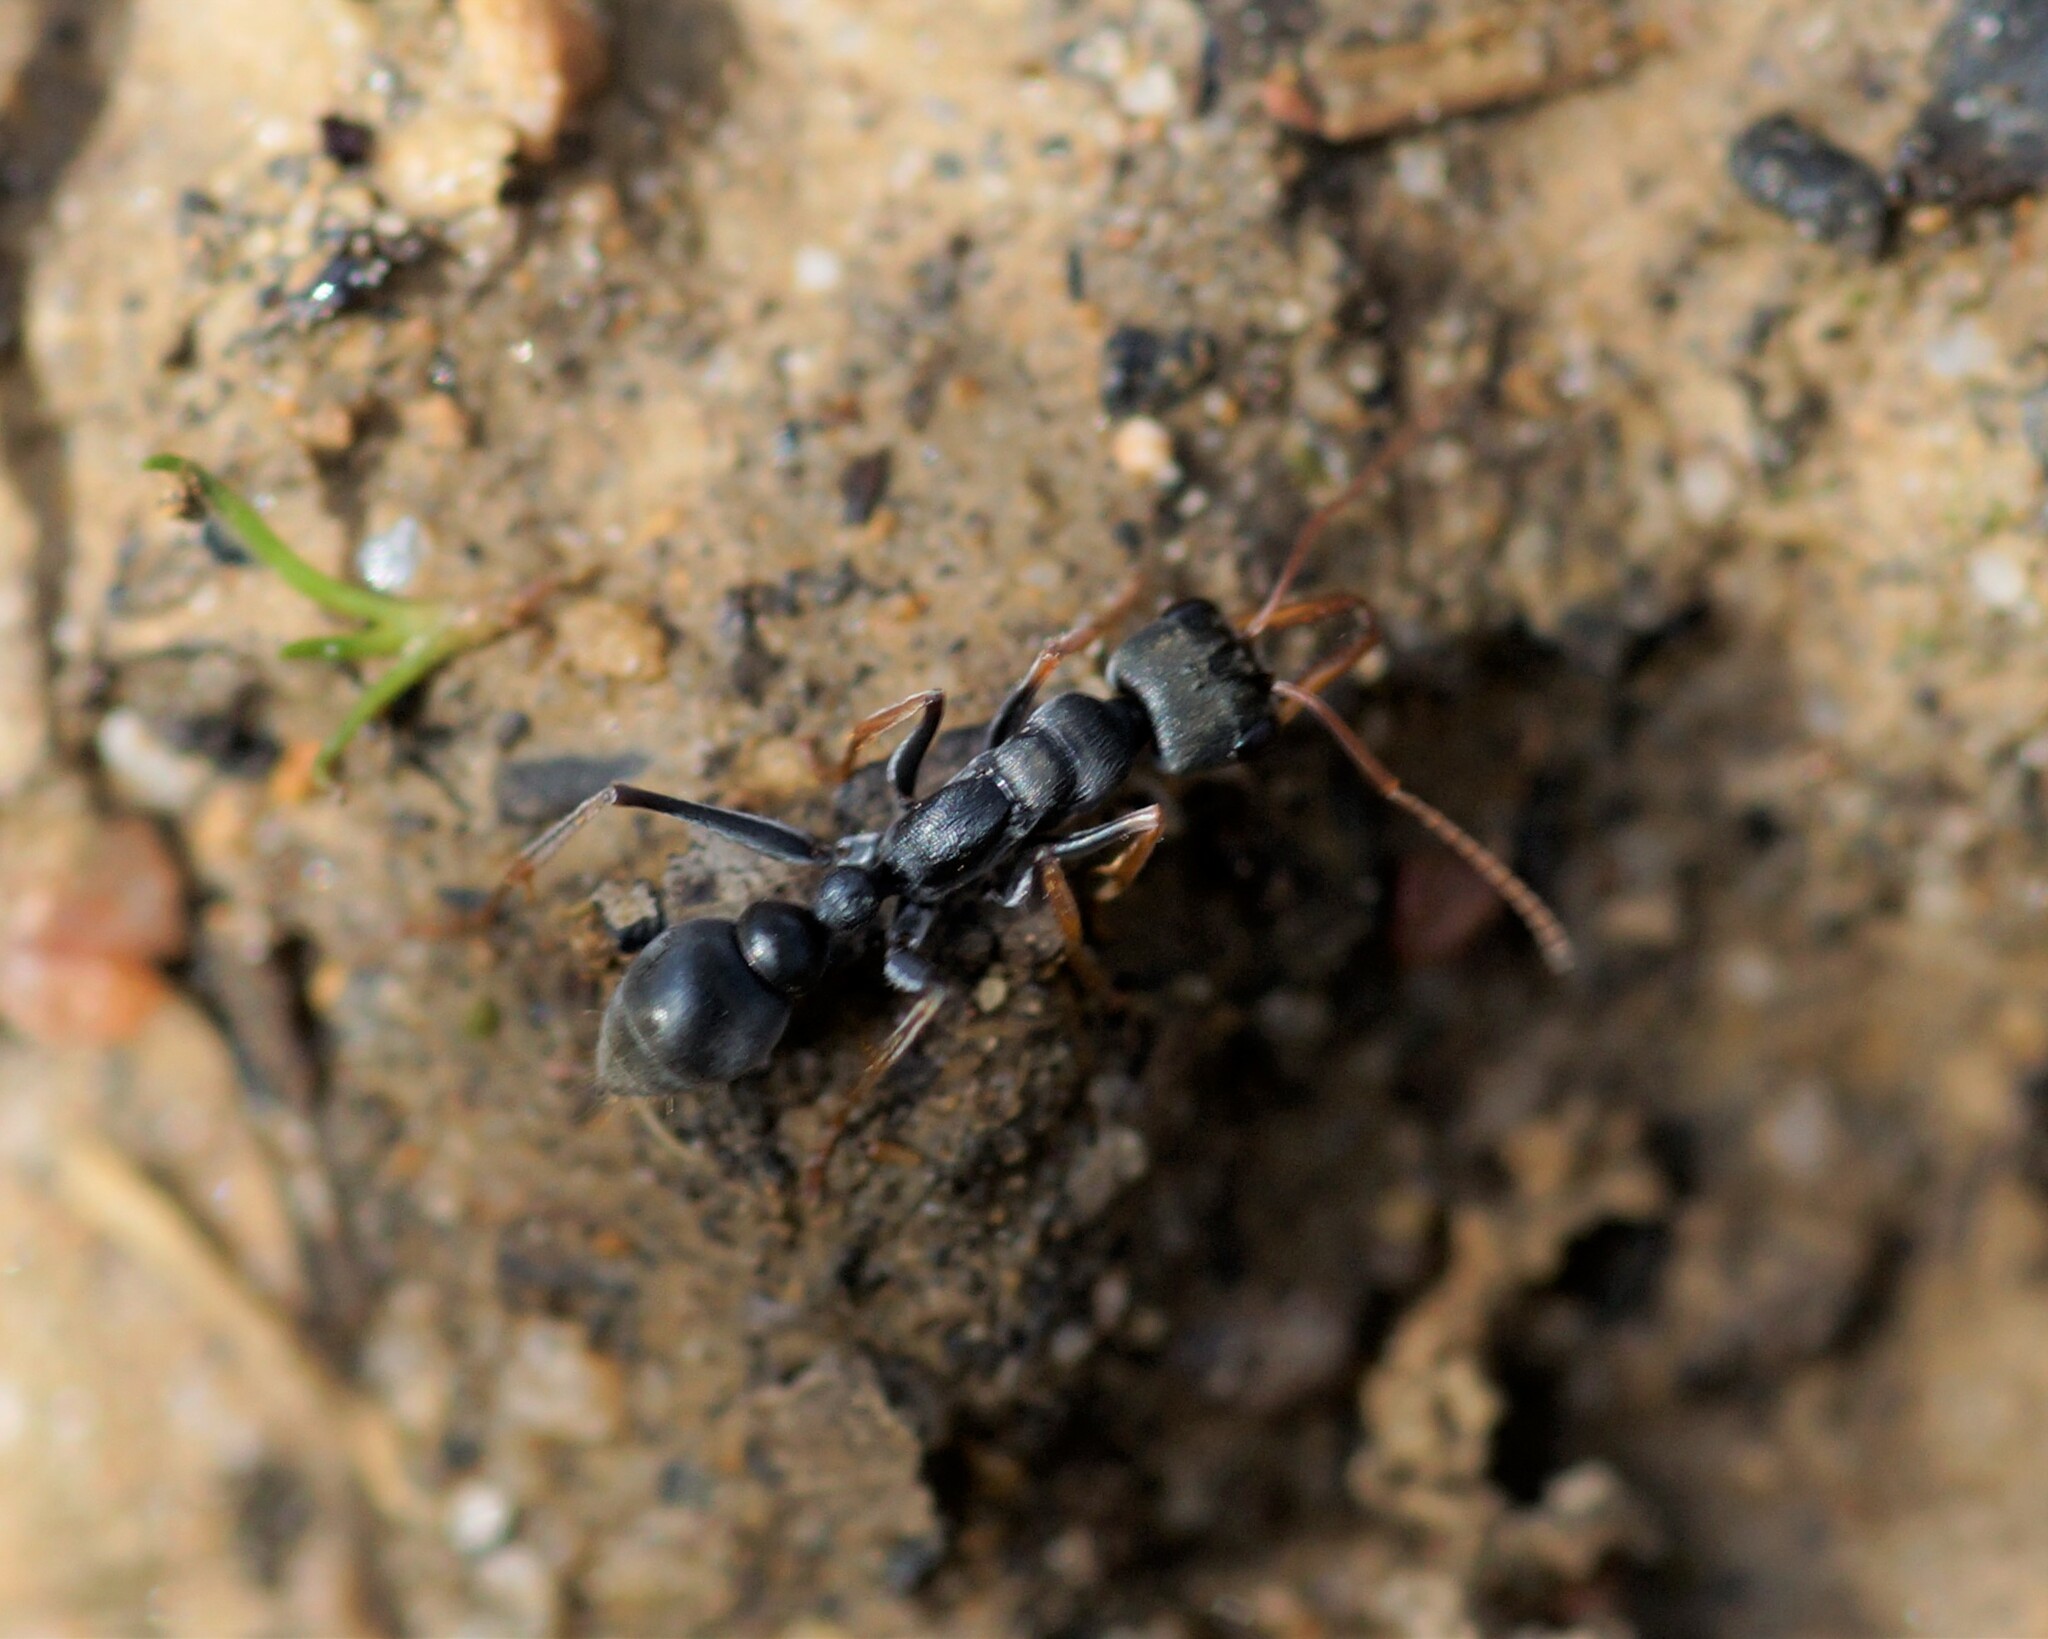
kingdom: Animalia
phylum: Arthropoda
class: Insecta
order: Hymenoptera
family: Formicidae
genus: Myrmecia
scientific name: Myrmecia pilosula
